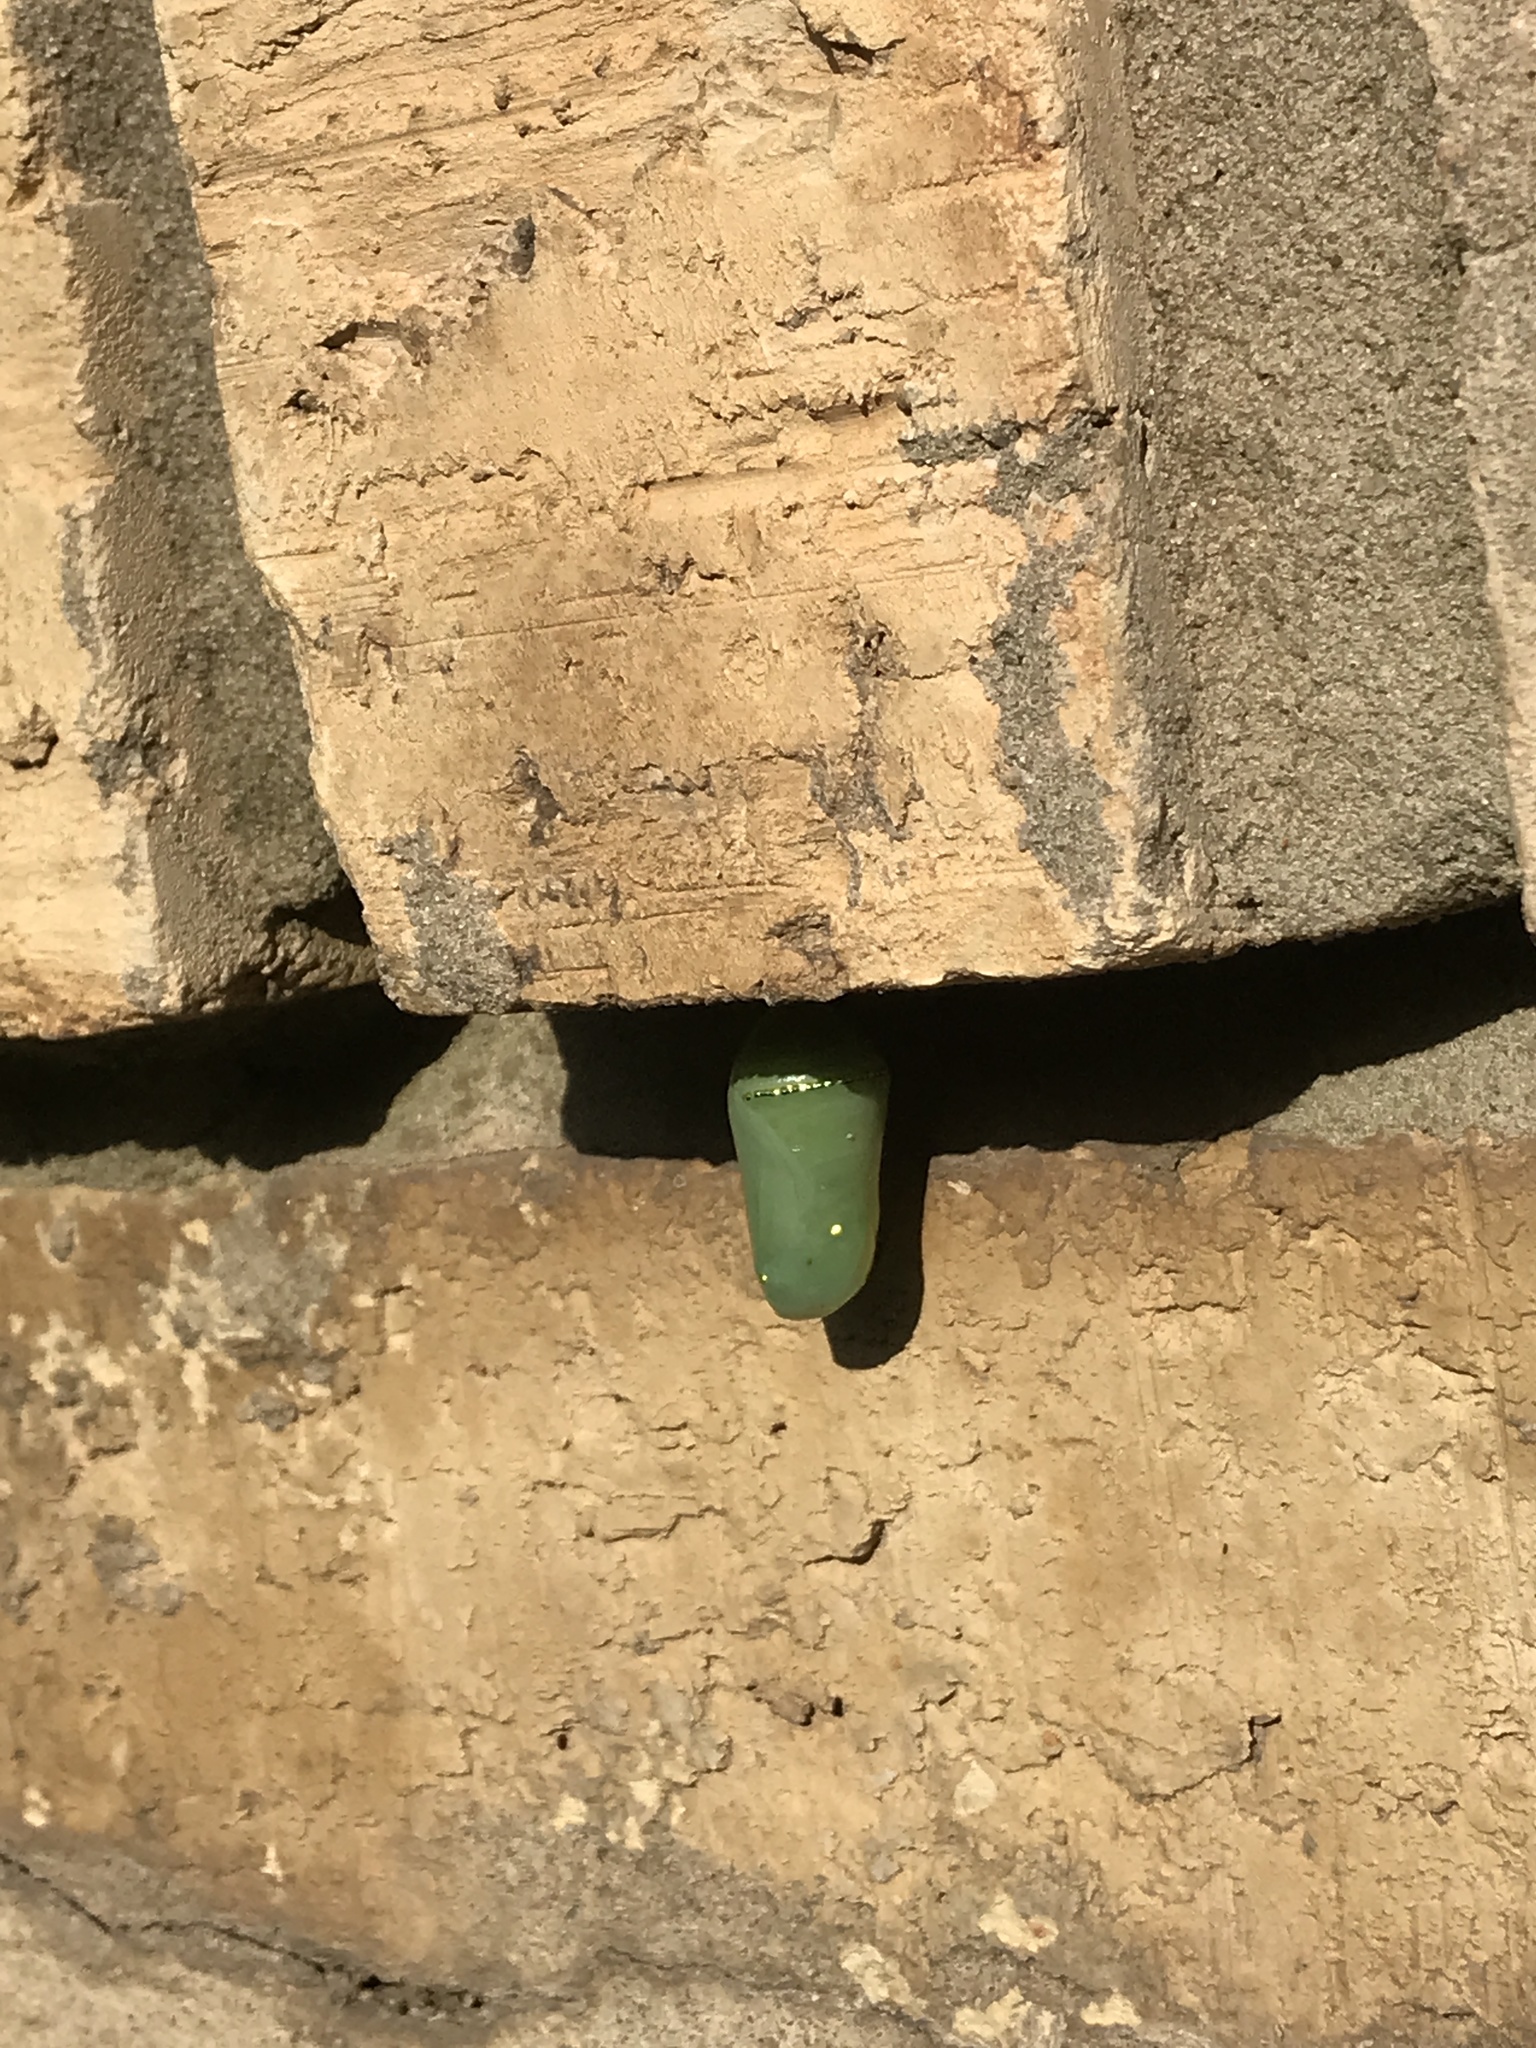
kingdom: Animalia
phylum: Arthropoda
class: Insecta
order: Lepidoptera
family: Nymphalidae
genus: Danaus
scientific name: Danaus plexippus
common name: Monarch
